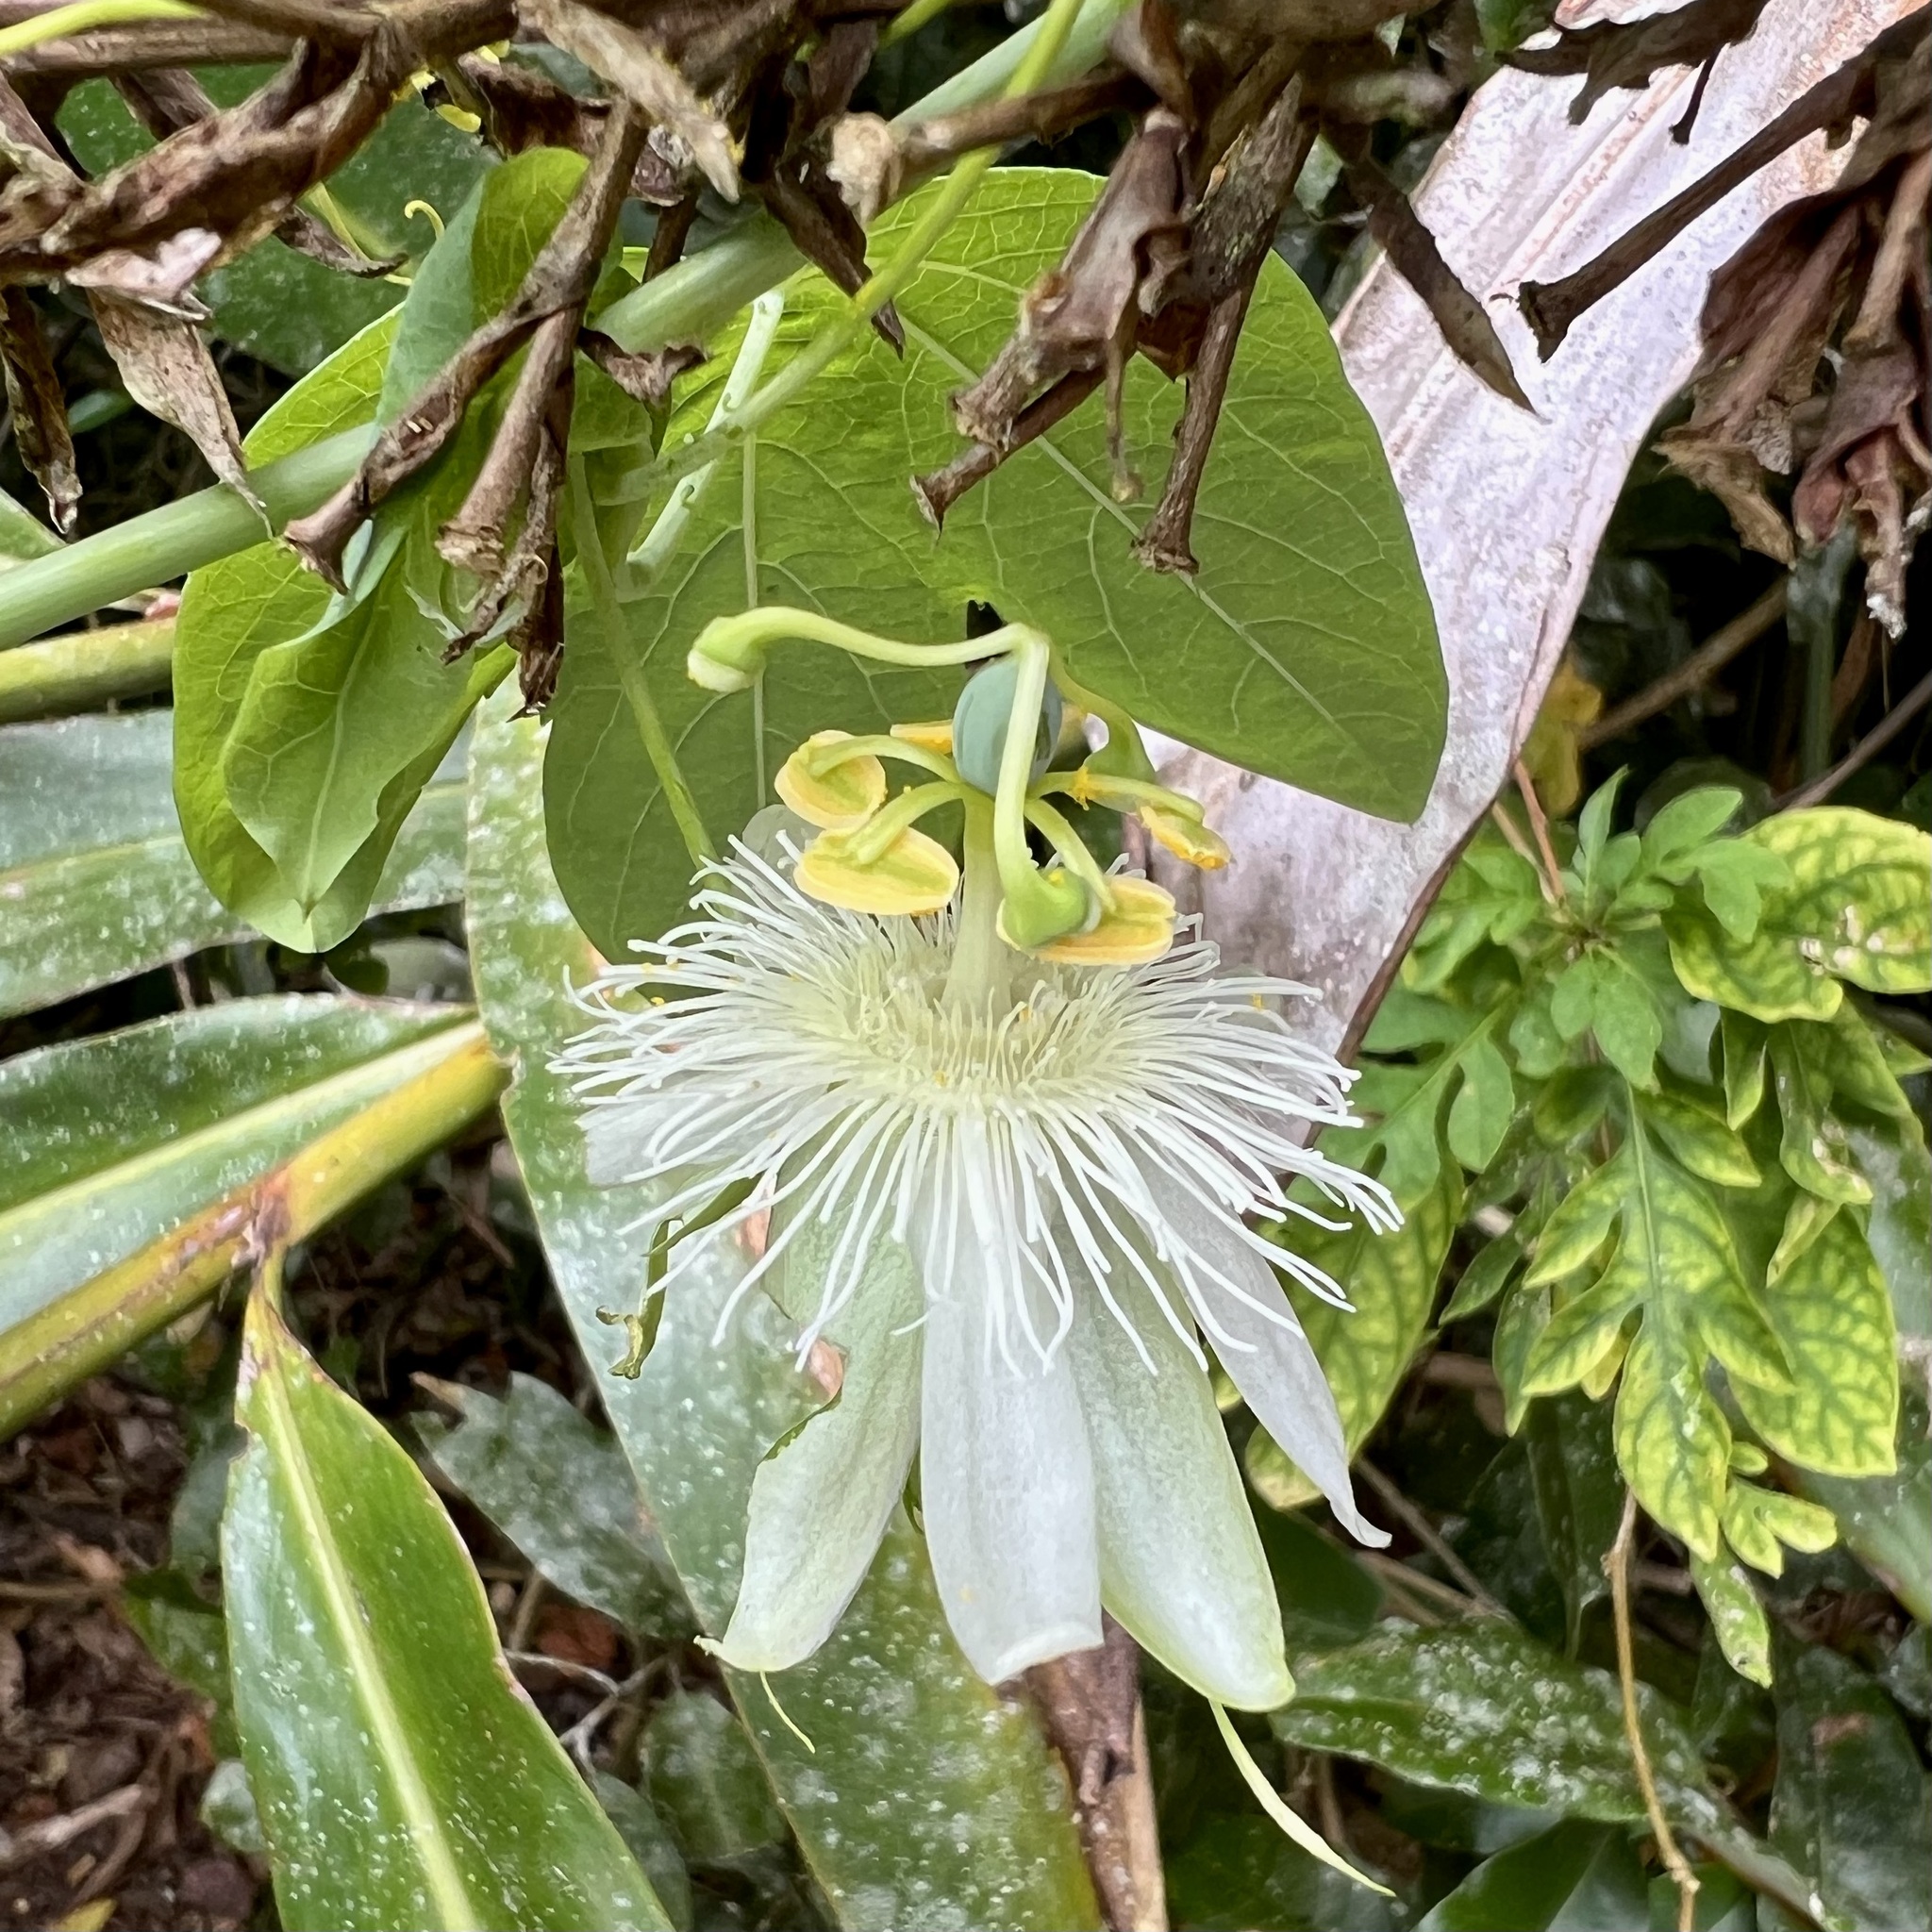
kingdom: Plantae
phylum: Tracheophyta
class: Magnoliopsida
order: Malpighiales
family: Passifloraceae
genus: Passiflora
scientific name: Passiflora subpeltata
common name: White passionflower
